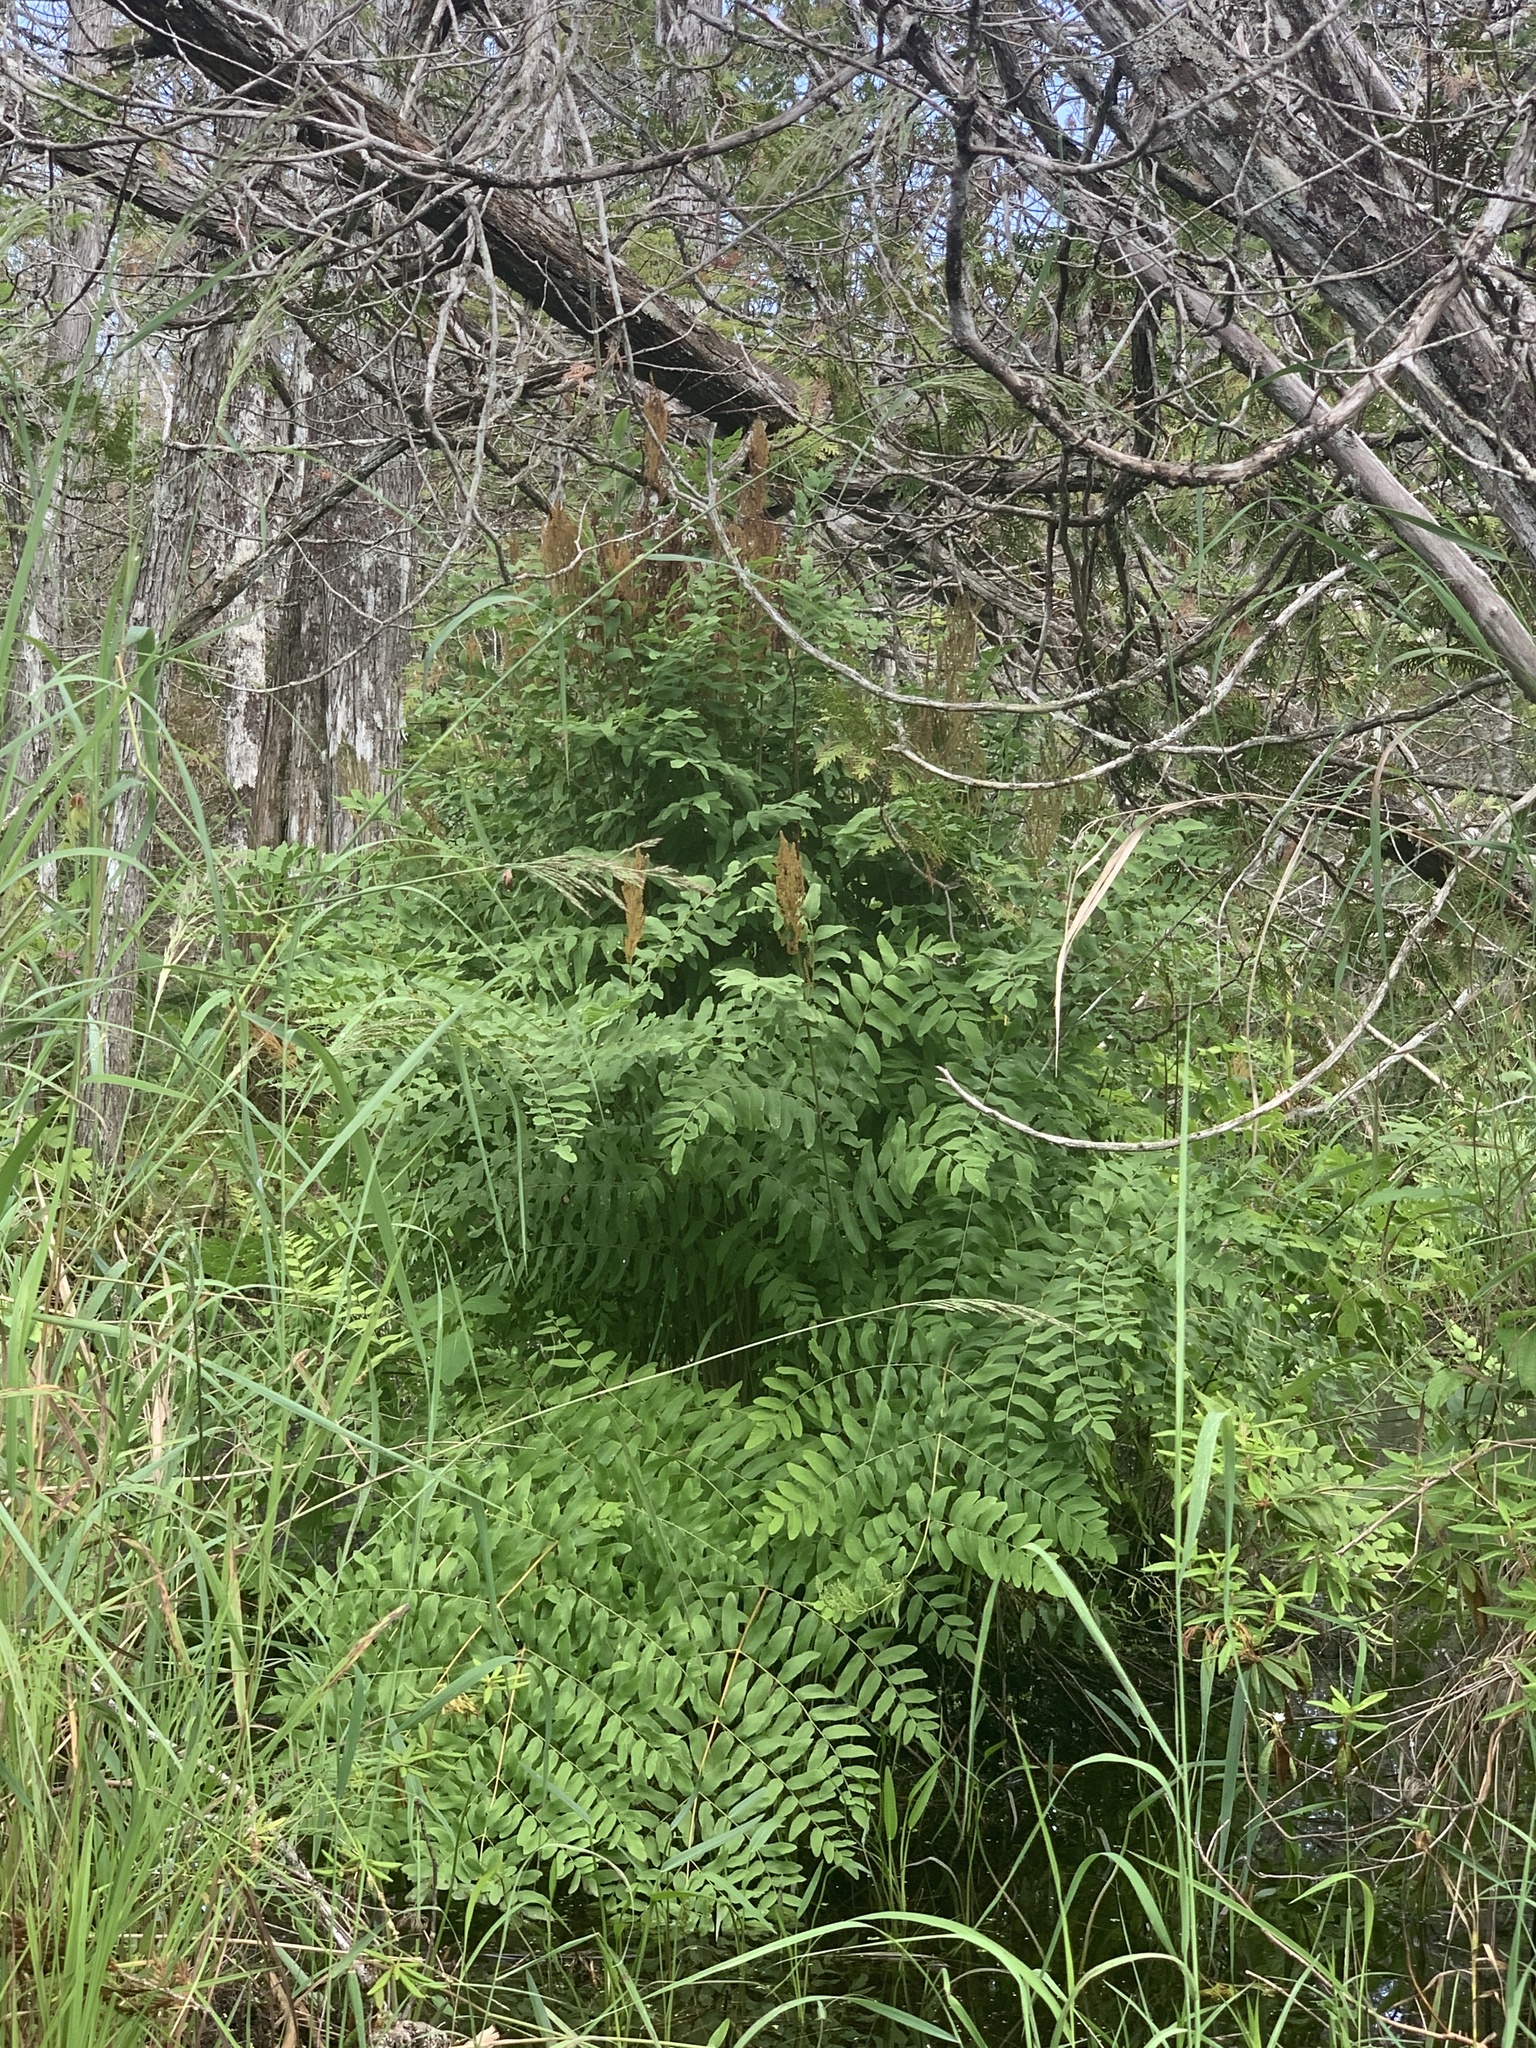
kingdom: Plantae
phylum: Tracheophyta
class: Polypodiopsida
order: Osmundales
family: Osmundaceae
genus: Osmunda
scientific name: Osmunda spectabilis
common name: American royal fern
